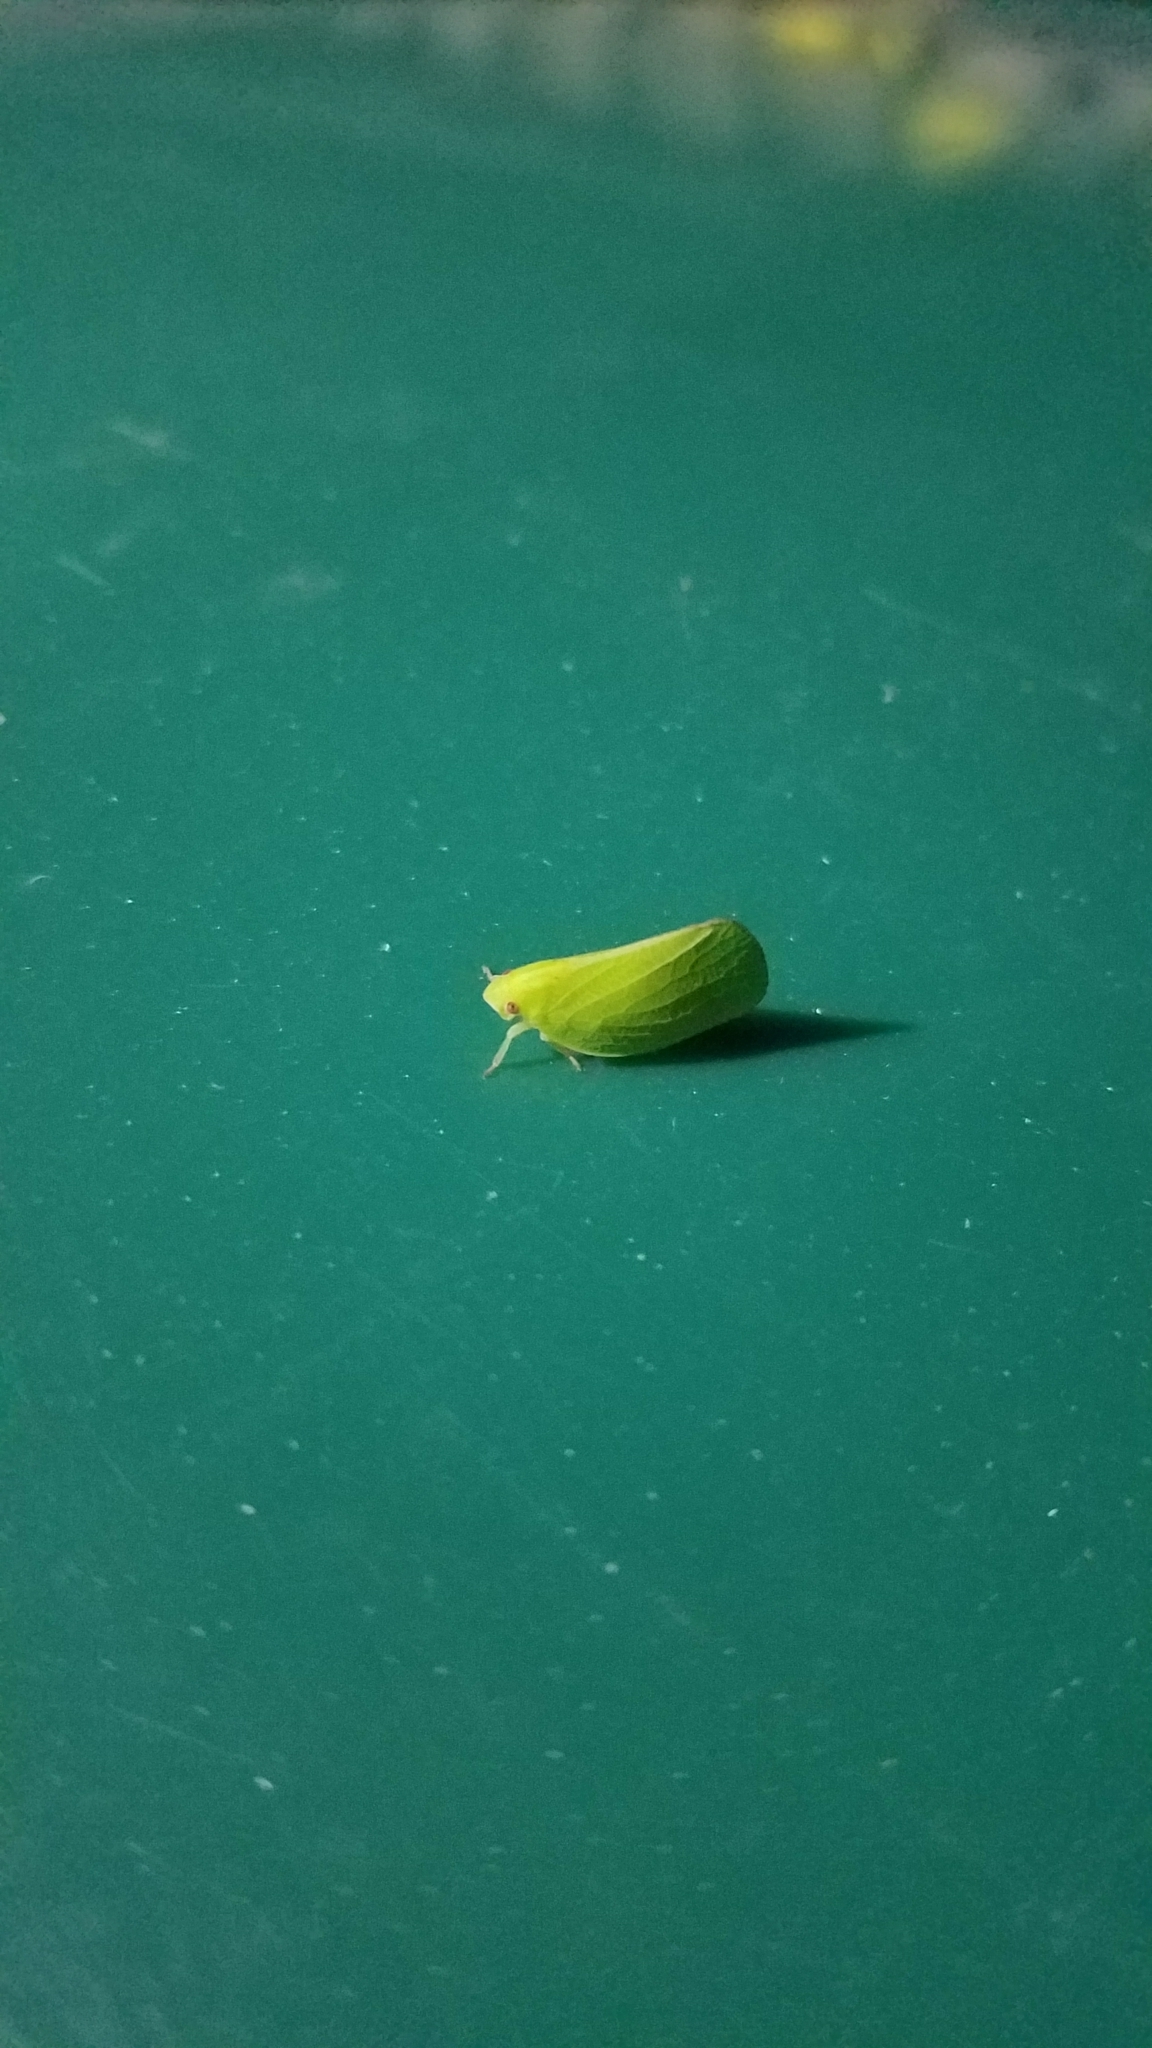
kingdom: Animalia
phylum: Arthropoda
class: Insecta
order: Hemiptera
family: Acanaloniidae
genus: Acanalonia
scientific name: Acanalonia conica
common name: Green cone-headed planthopper
